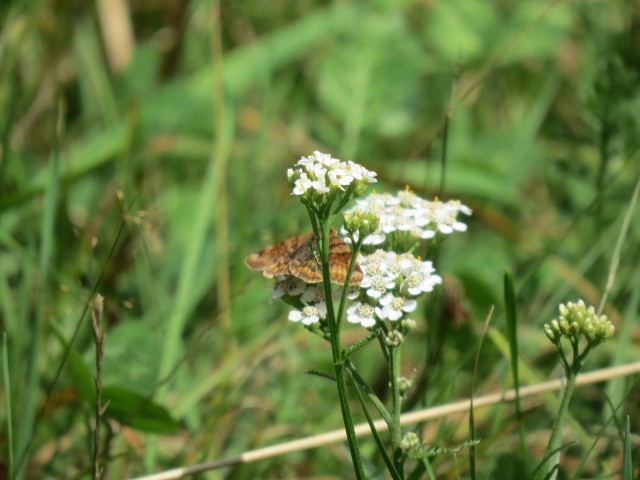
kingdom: Animalia
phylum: Arthropoda
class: Insecta
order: Lepidoptera
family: Erebidae
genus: Euclidia
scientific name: Euclidia glyphica
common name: Burnet companion
